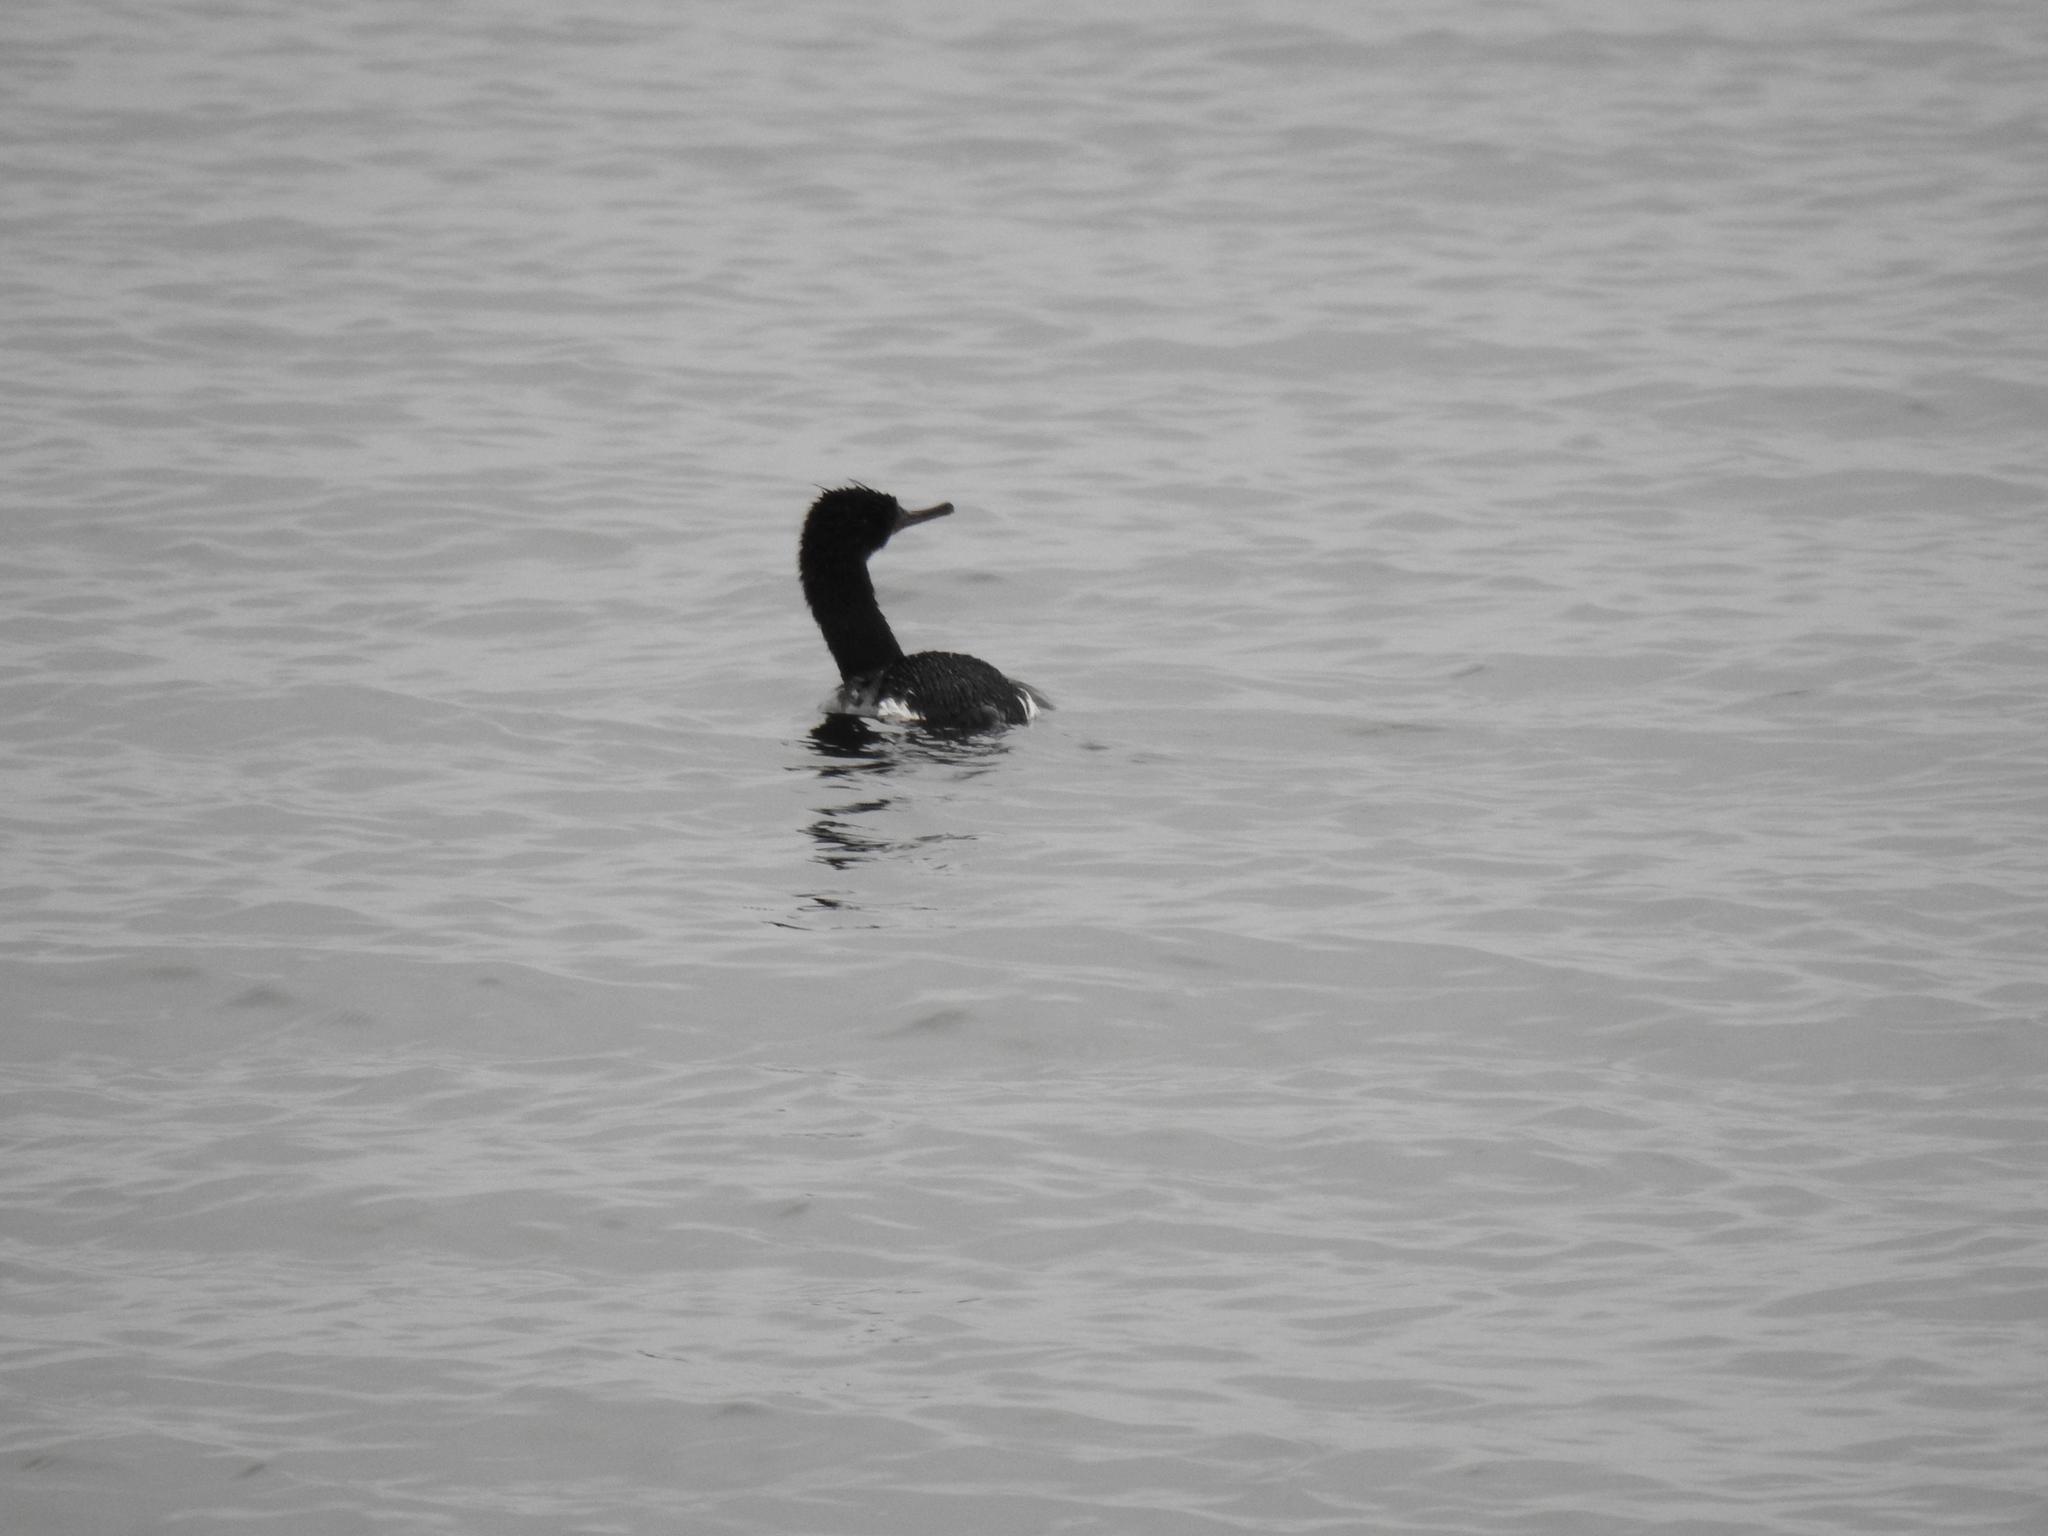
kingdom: Animalia
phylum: Chordata
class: Aves
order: Suliformes
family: Phalacrocoracidae
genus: Phalacrocorax
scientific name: Phalacrocorax pelagicus
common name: Pelagic cormorant
